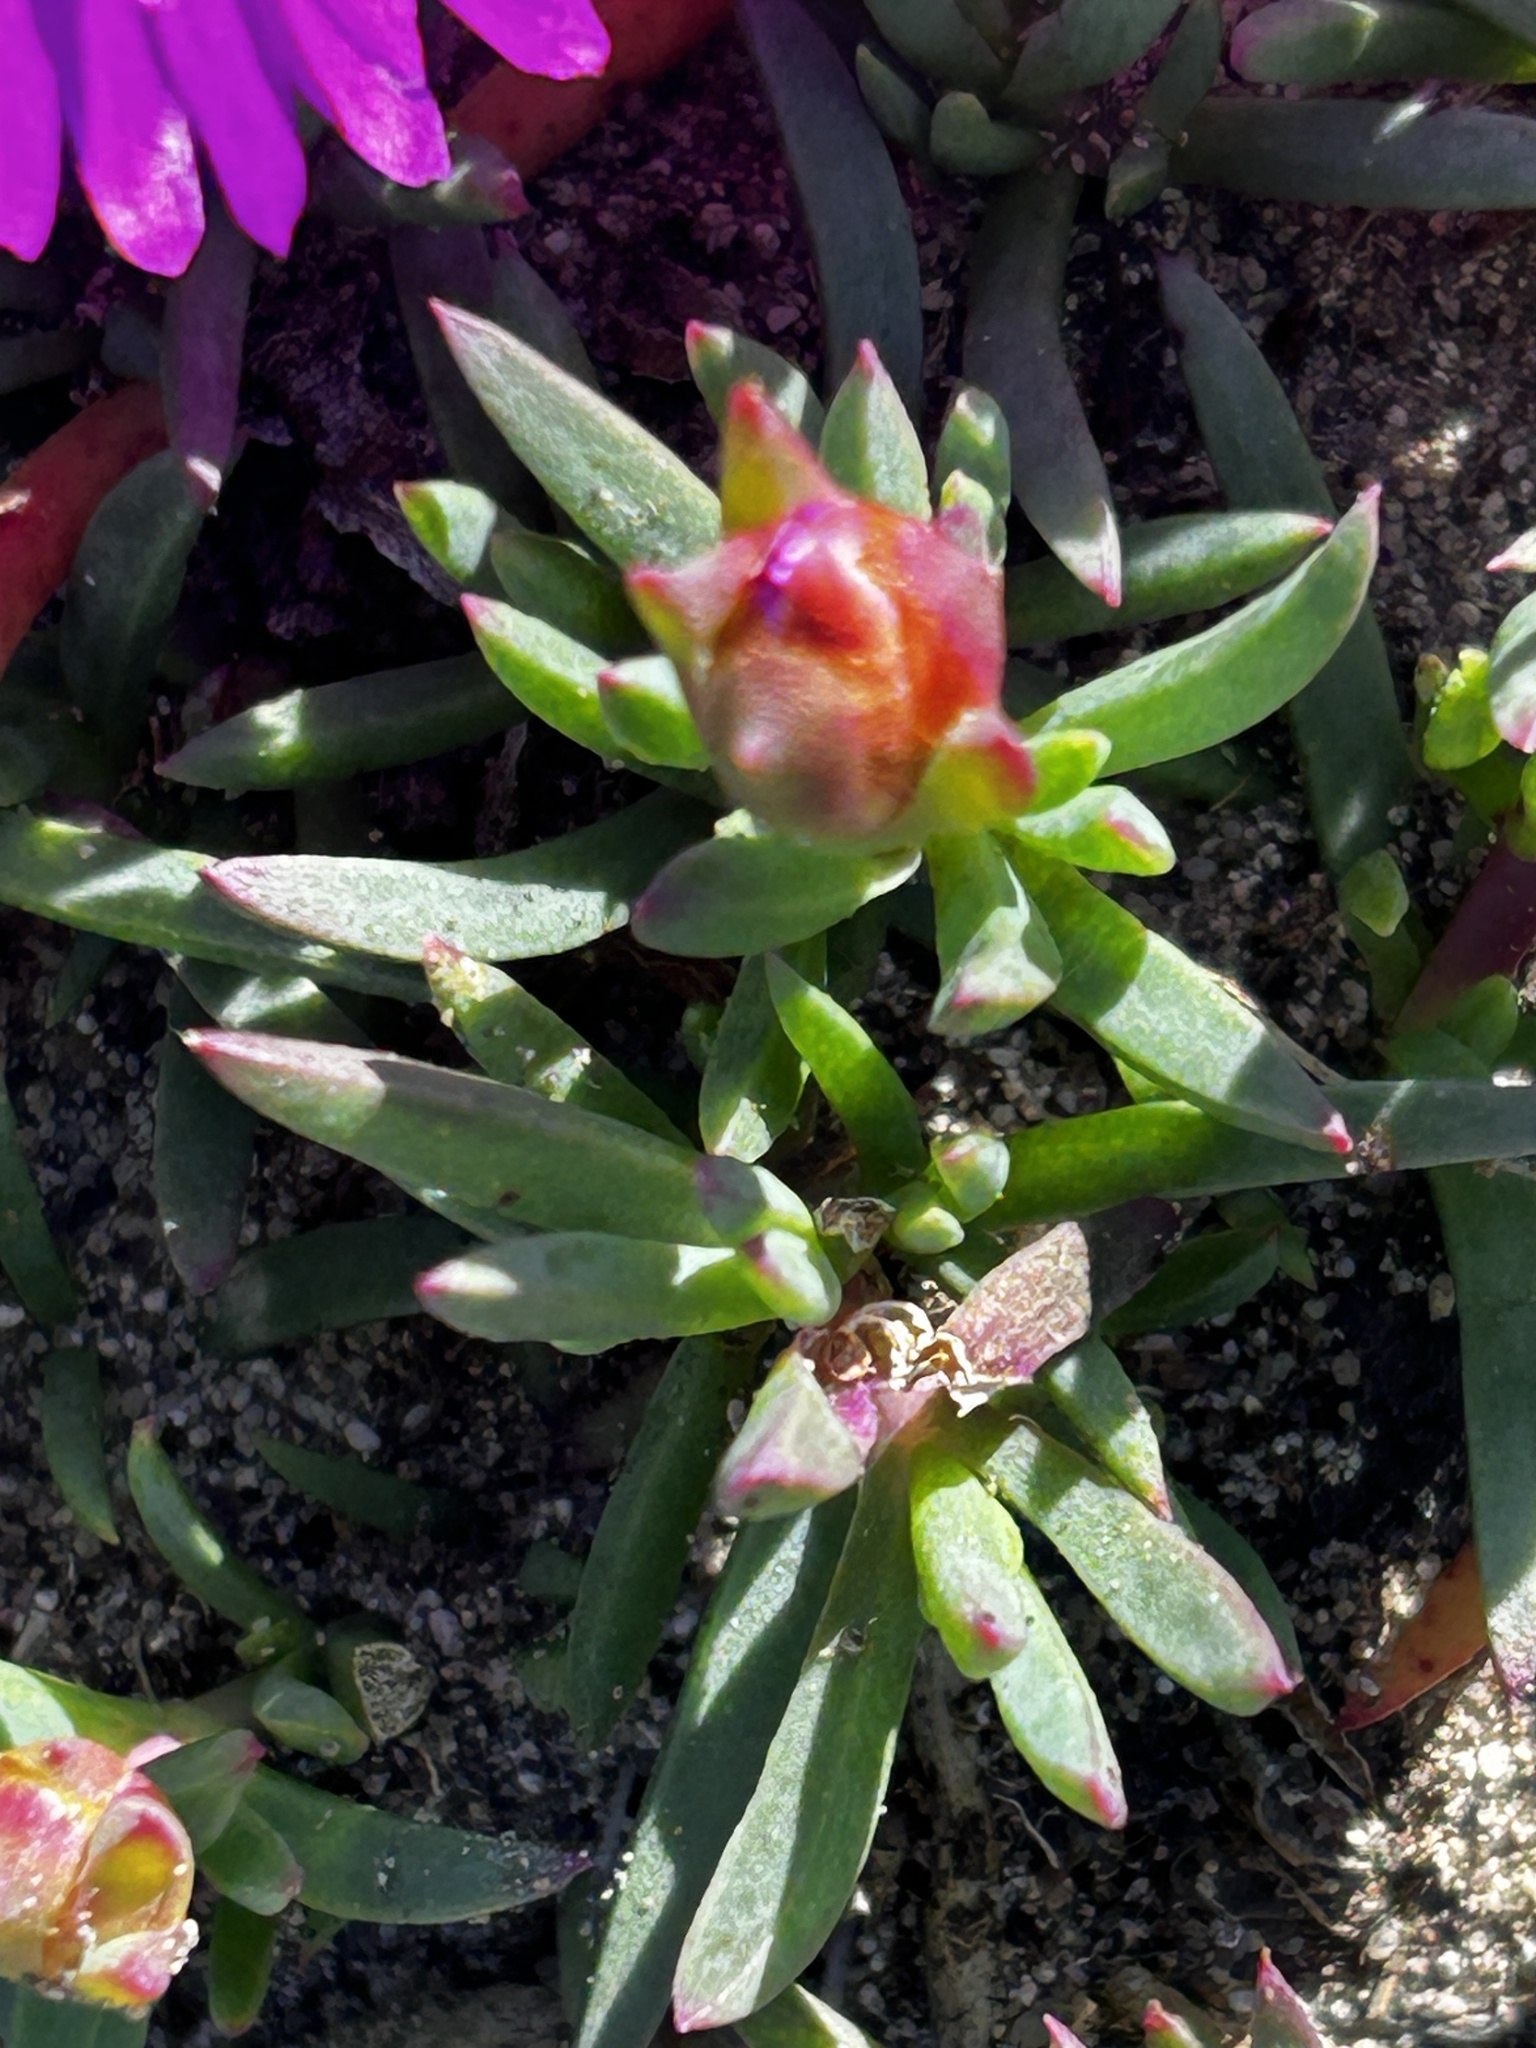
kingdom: Plantae
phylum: Tracheophyta
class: Magnoliopsida
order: Caryophyllales
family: Aizoaceae
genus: Lampranthus
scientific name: Lampranthus ceriseus
